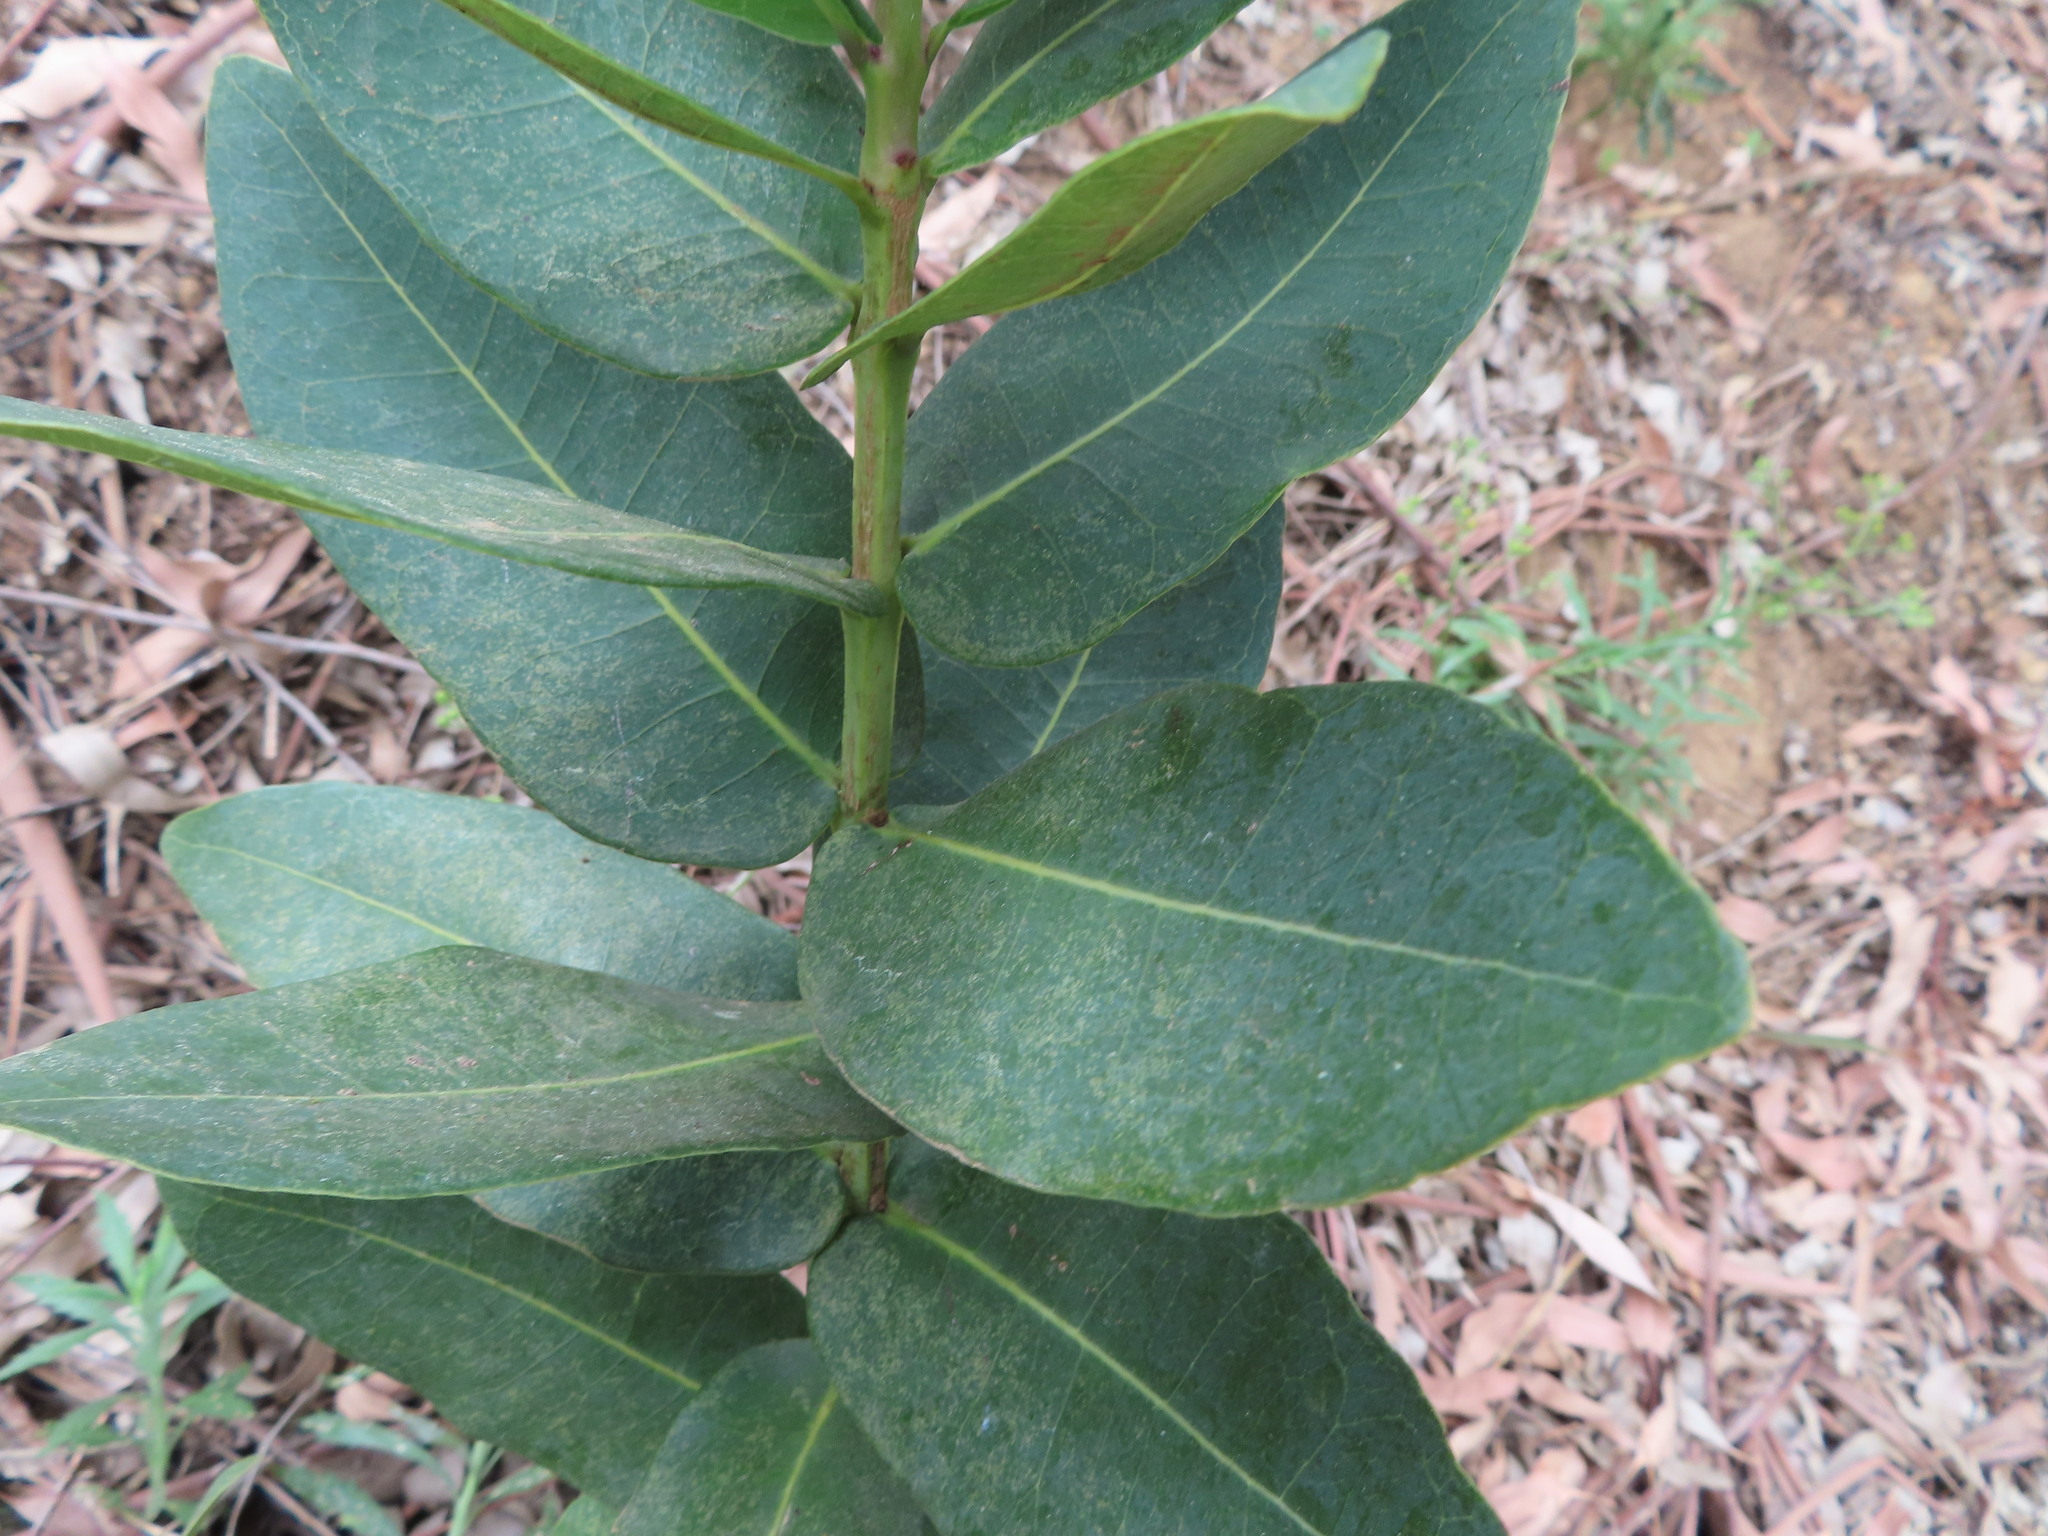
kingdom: Plantae
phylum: Tracheophyta
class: Magnoliopsida
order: Myrtales
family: Myrtaceae
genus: Syzygium
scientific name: Syzygium cordatum
